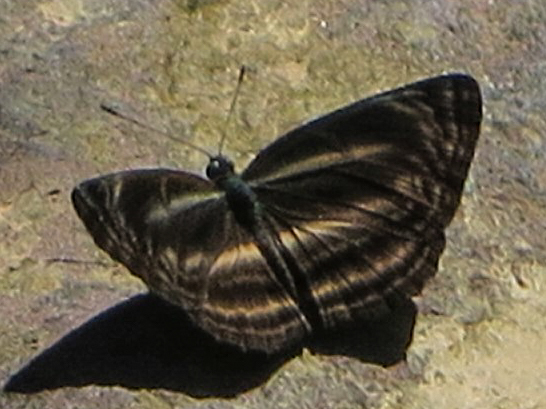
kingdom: Animalia
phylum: Arthropoda
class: Insecta
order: Lepidoptera
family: Nymphalidae
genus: Neptis
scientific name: Neptis ilira
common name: Dark dingy sailor
